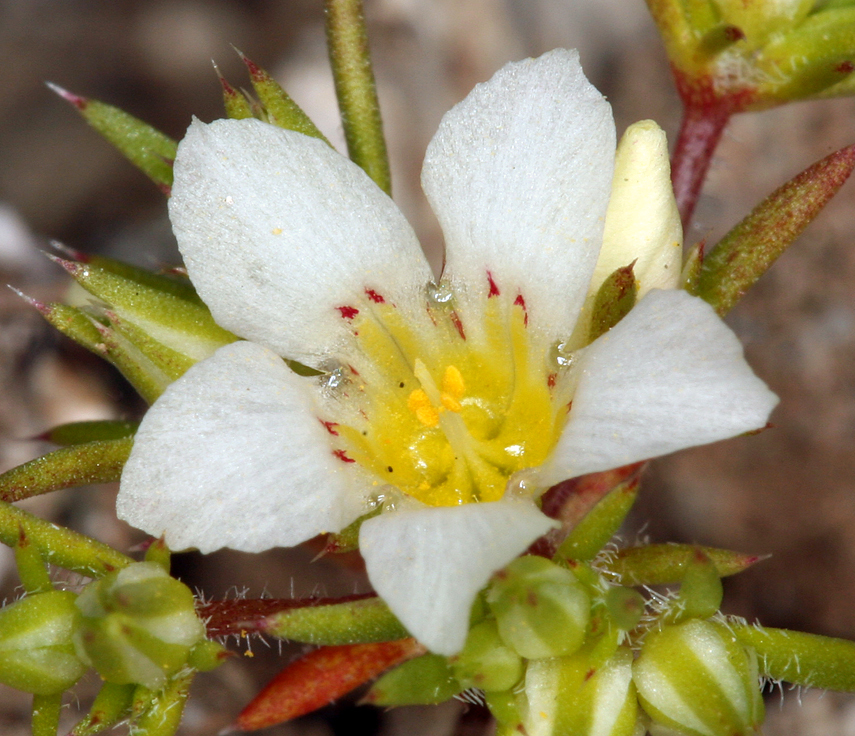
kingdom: Plantae
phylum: Tracheophyta
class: Magnoliopsida
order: Ericales
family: Polemoniaceae
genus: Linanthus
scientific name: Linanthus demissus
